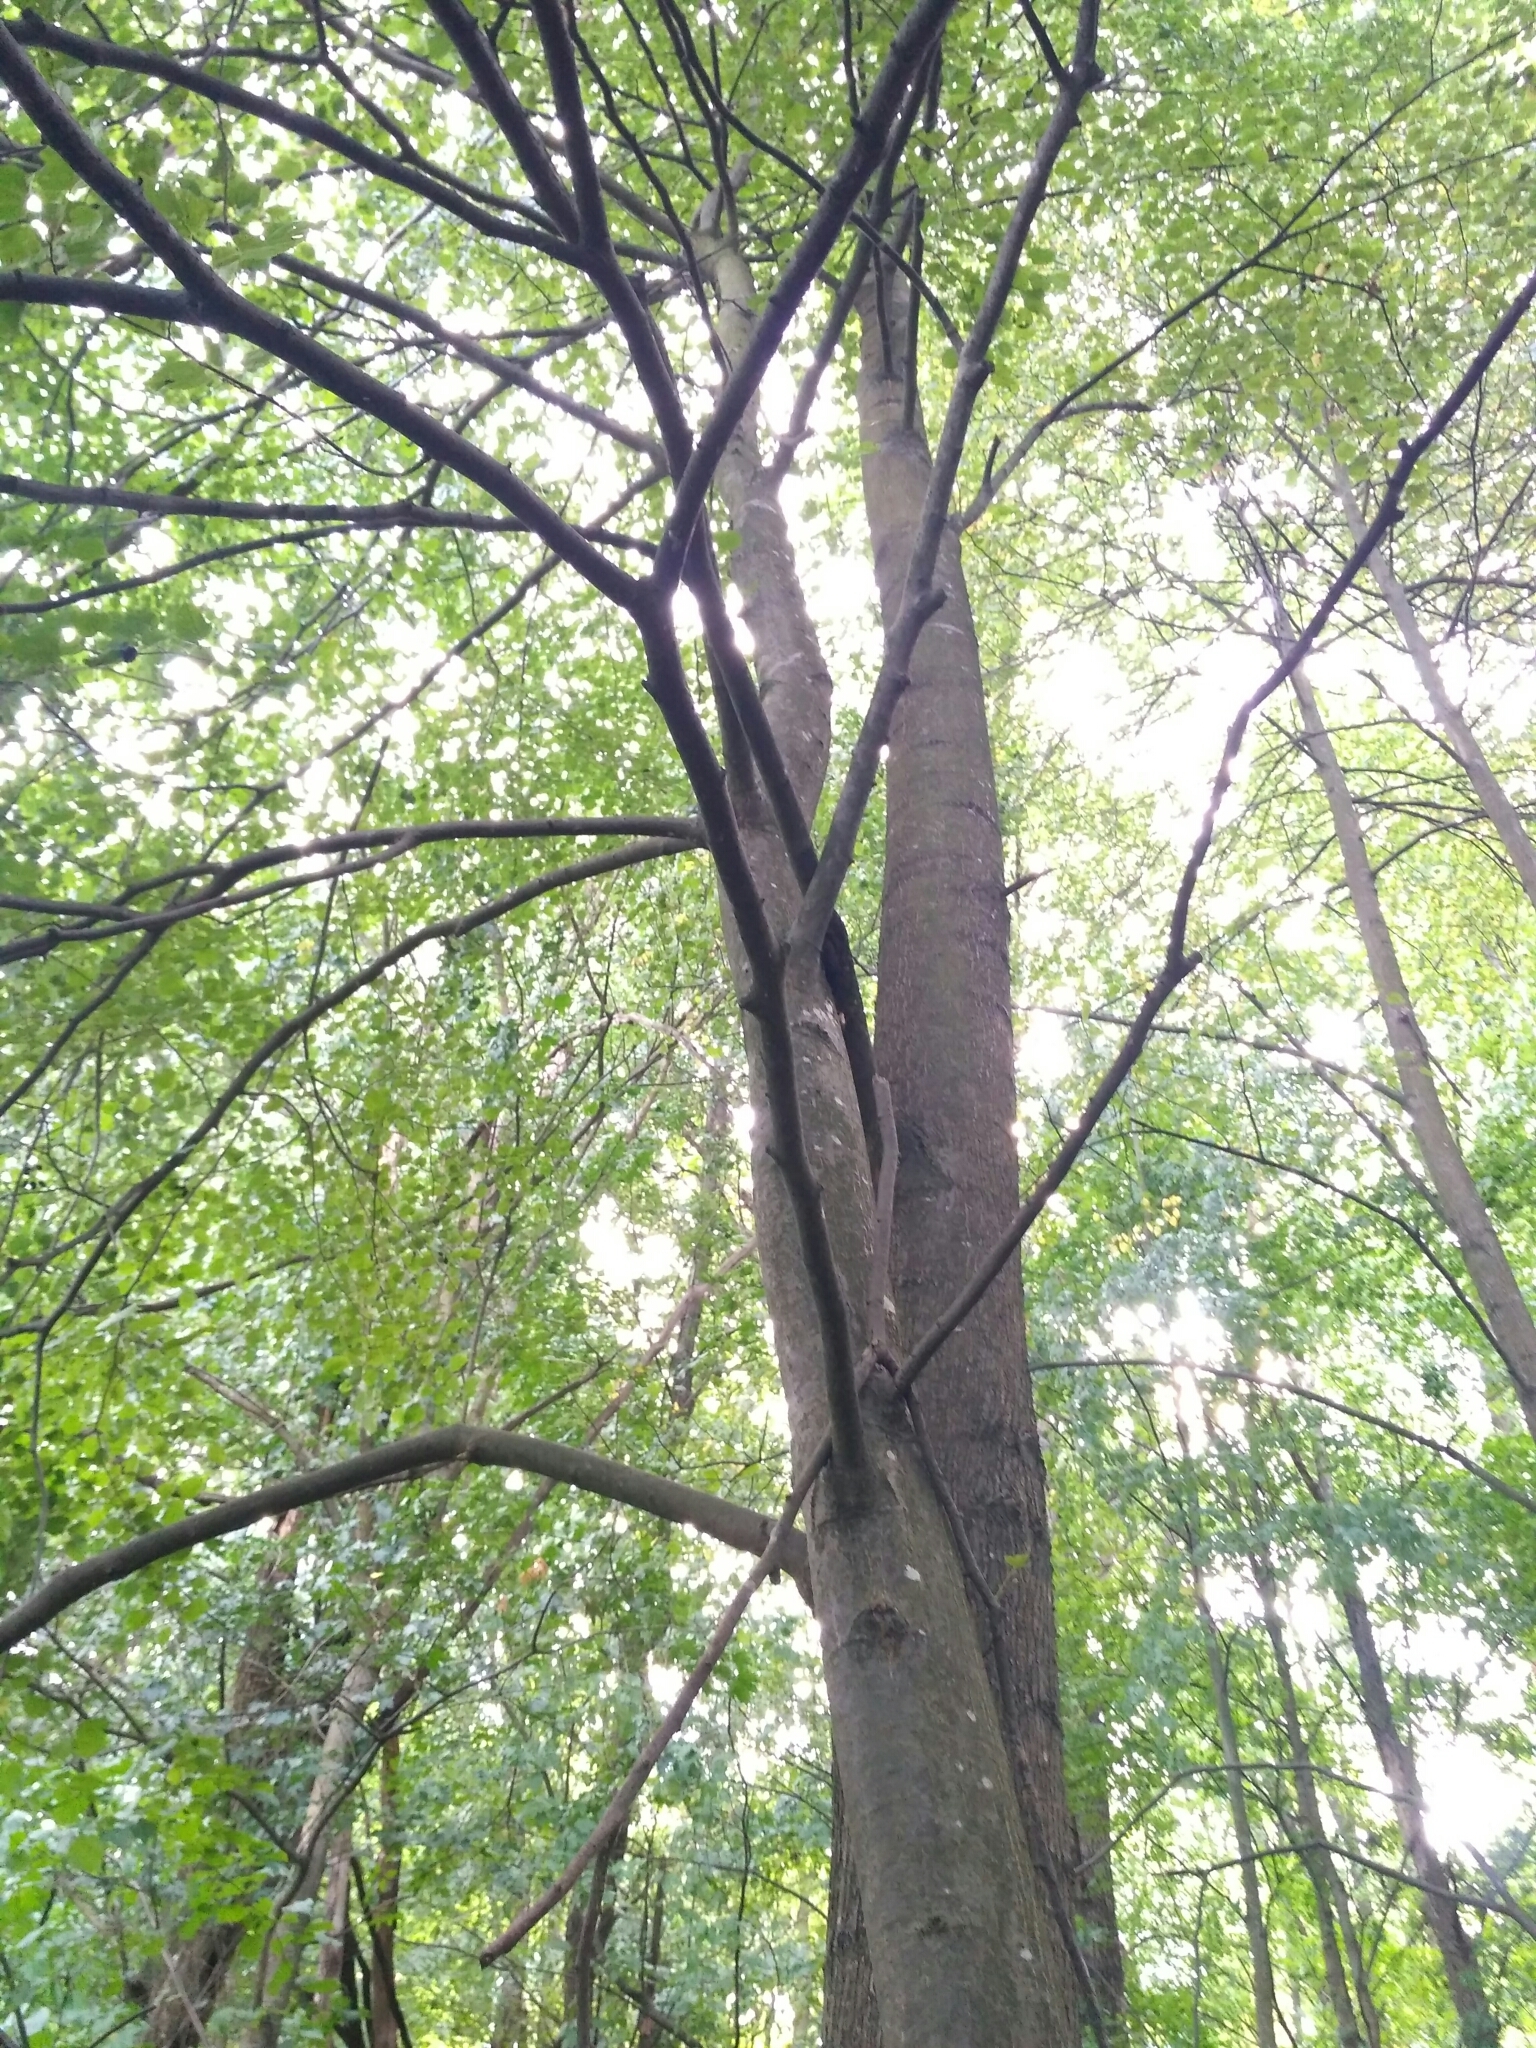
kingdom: Plantae
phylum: Tracheophyta
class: Magnoliopsida
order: Malvales
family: Malvaceae
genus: Tilia
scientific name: Tilia cordata
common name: Small-leaved lime
